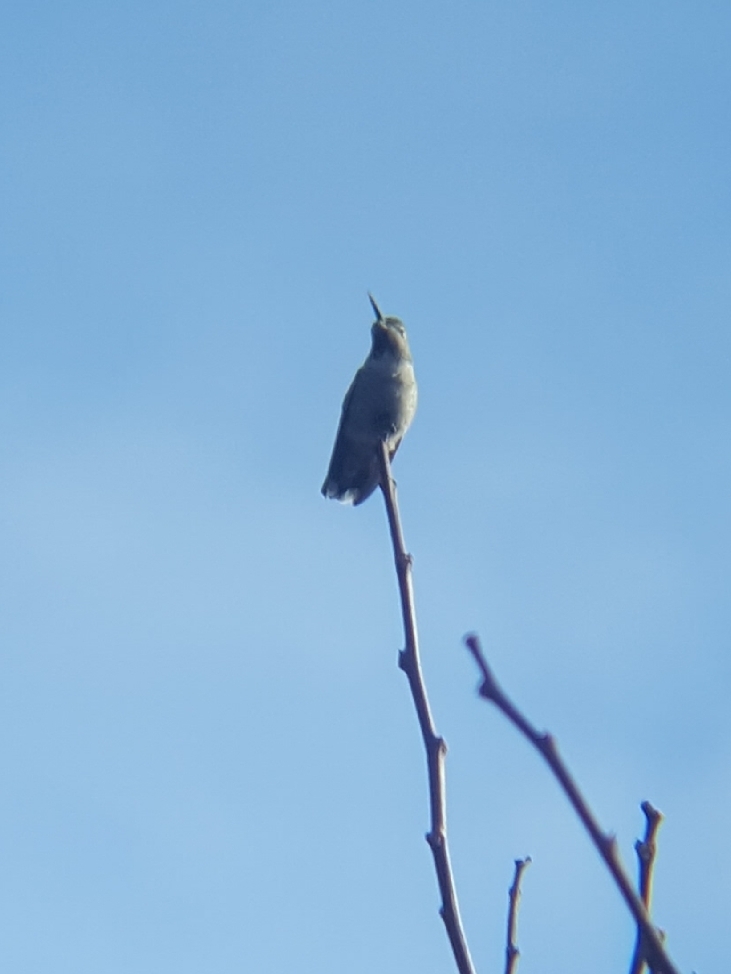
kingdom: Animalia
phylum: Chordata
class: Aves
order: Apodiformes
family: Trochilidae
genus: Calypte
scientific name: Calypte anna
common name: Anna's hummingbird
